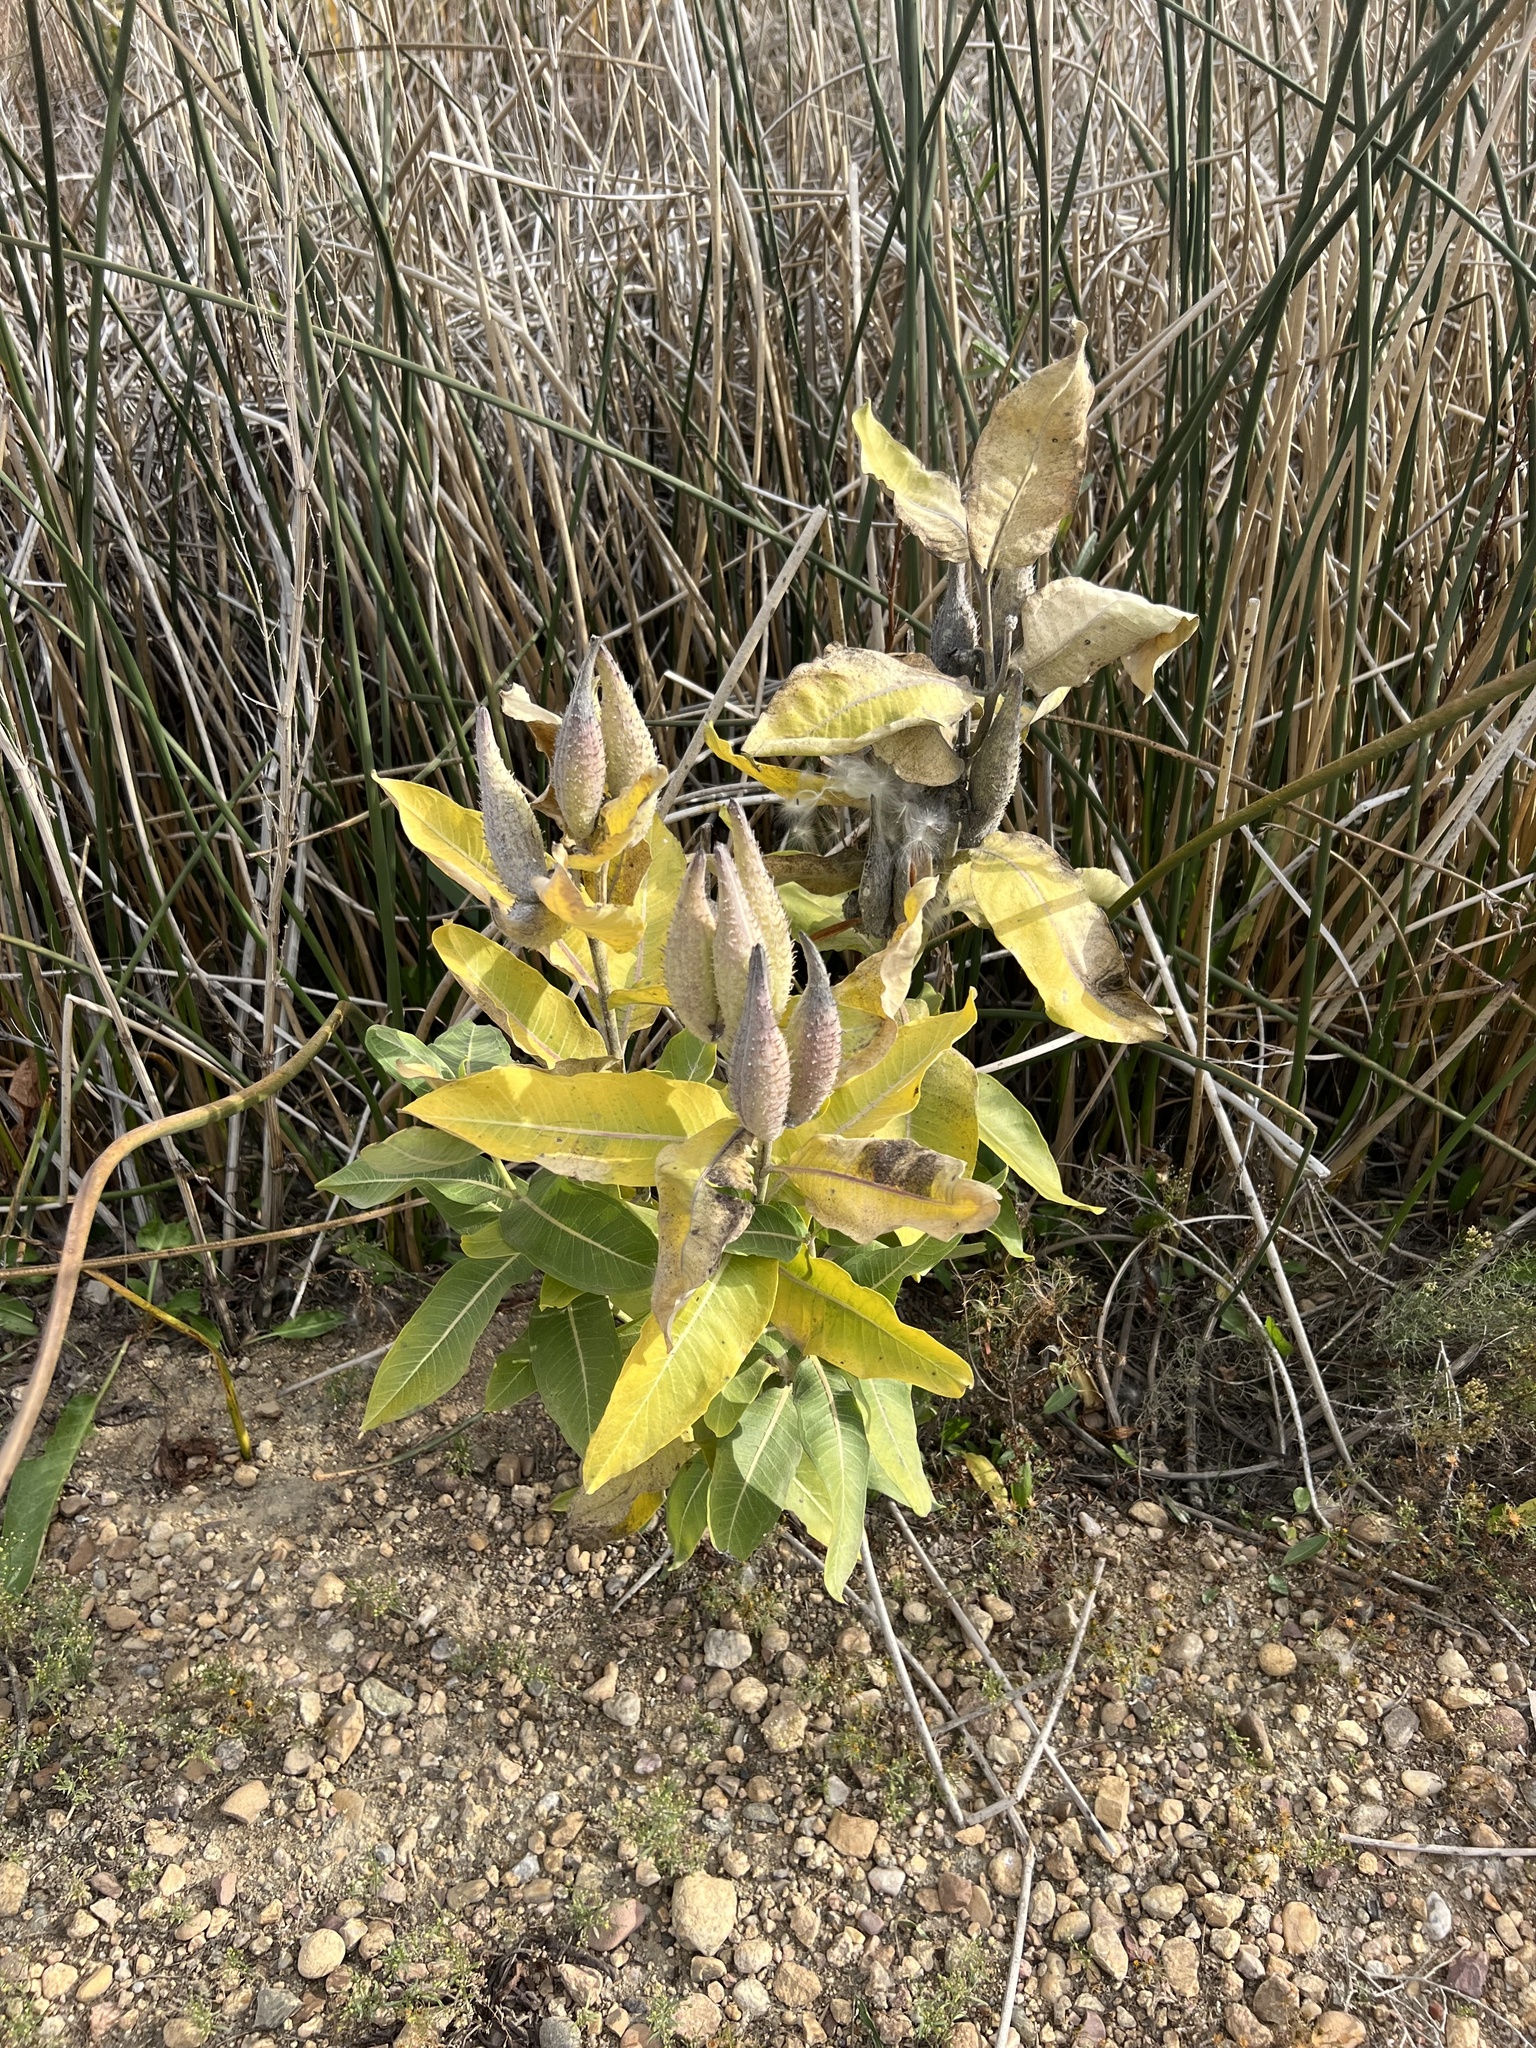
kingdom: Plantae
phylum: Tracheophyta
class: Magnoliopsida
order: Gentianales
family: Apocynaceae
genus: Asclepias
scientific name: Asclepias speciosa
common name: Showy milkweed
